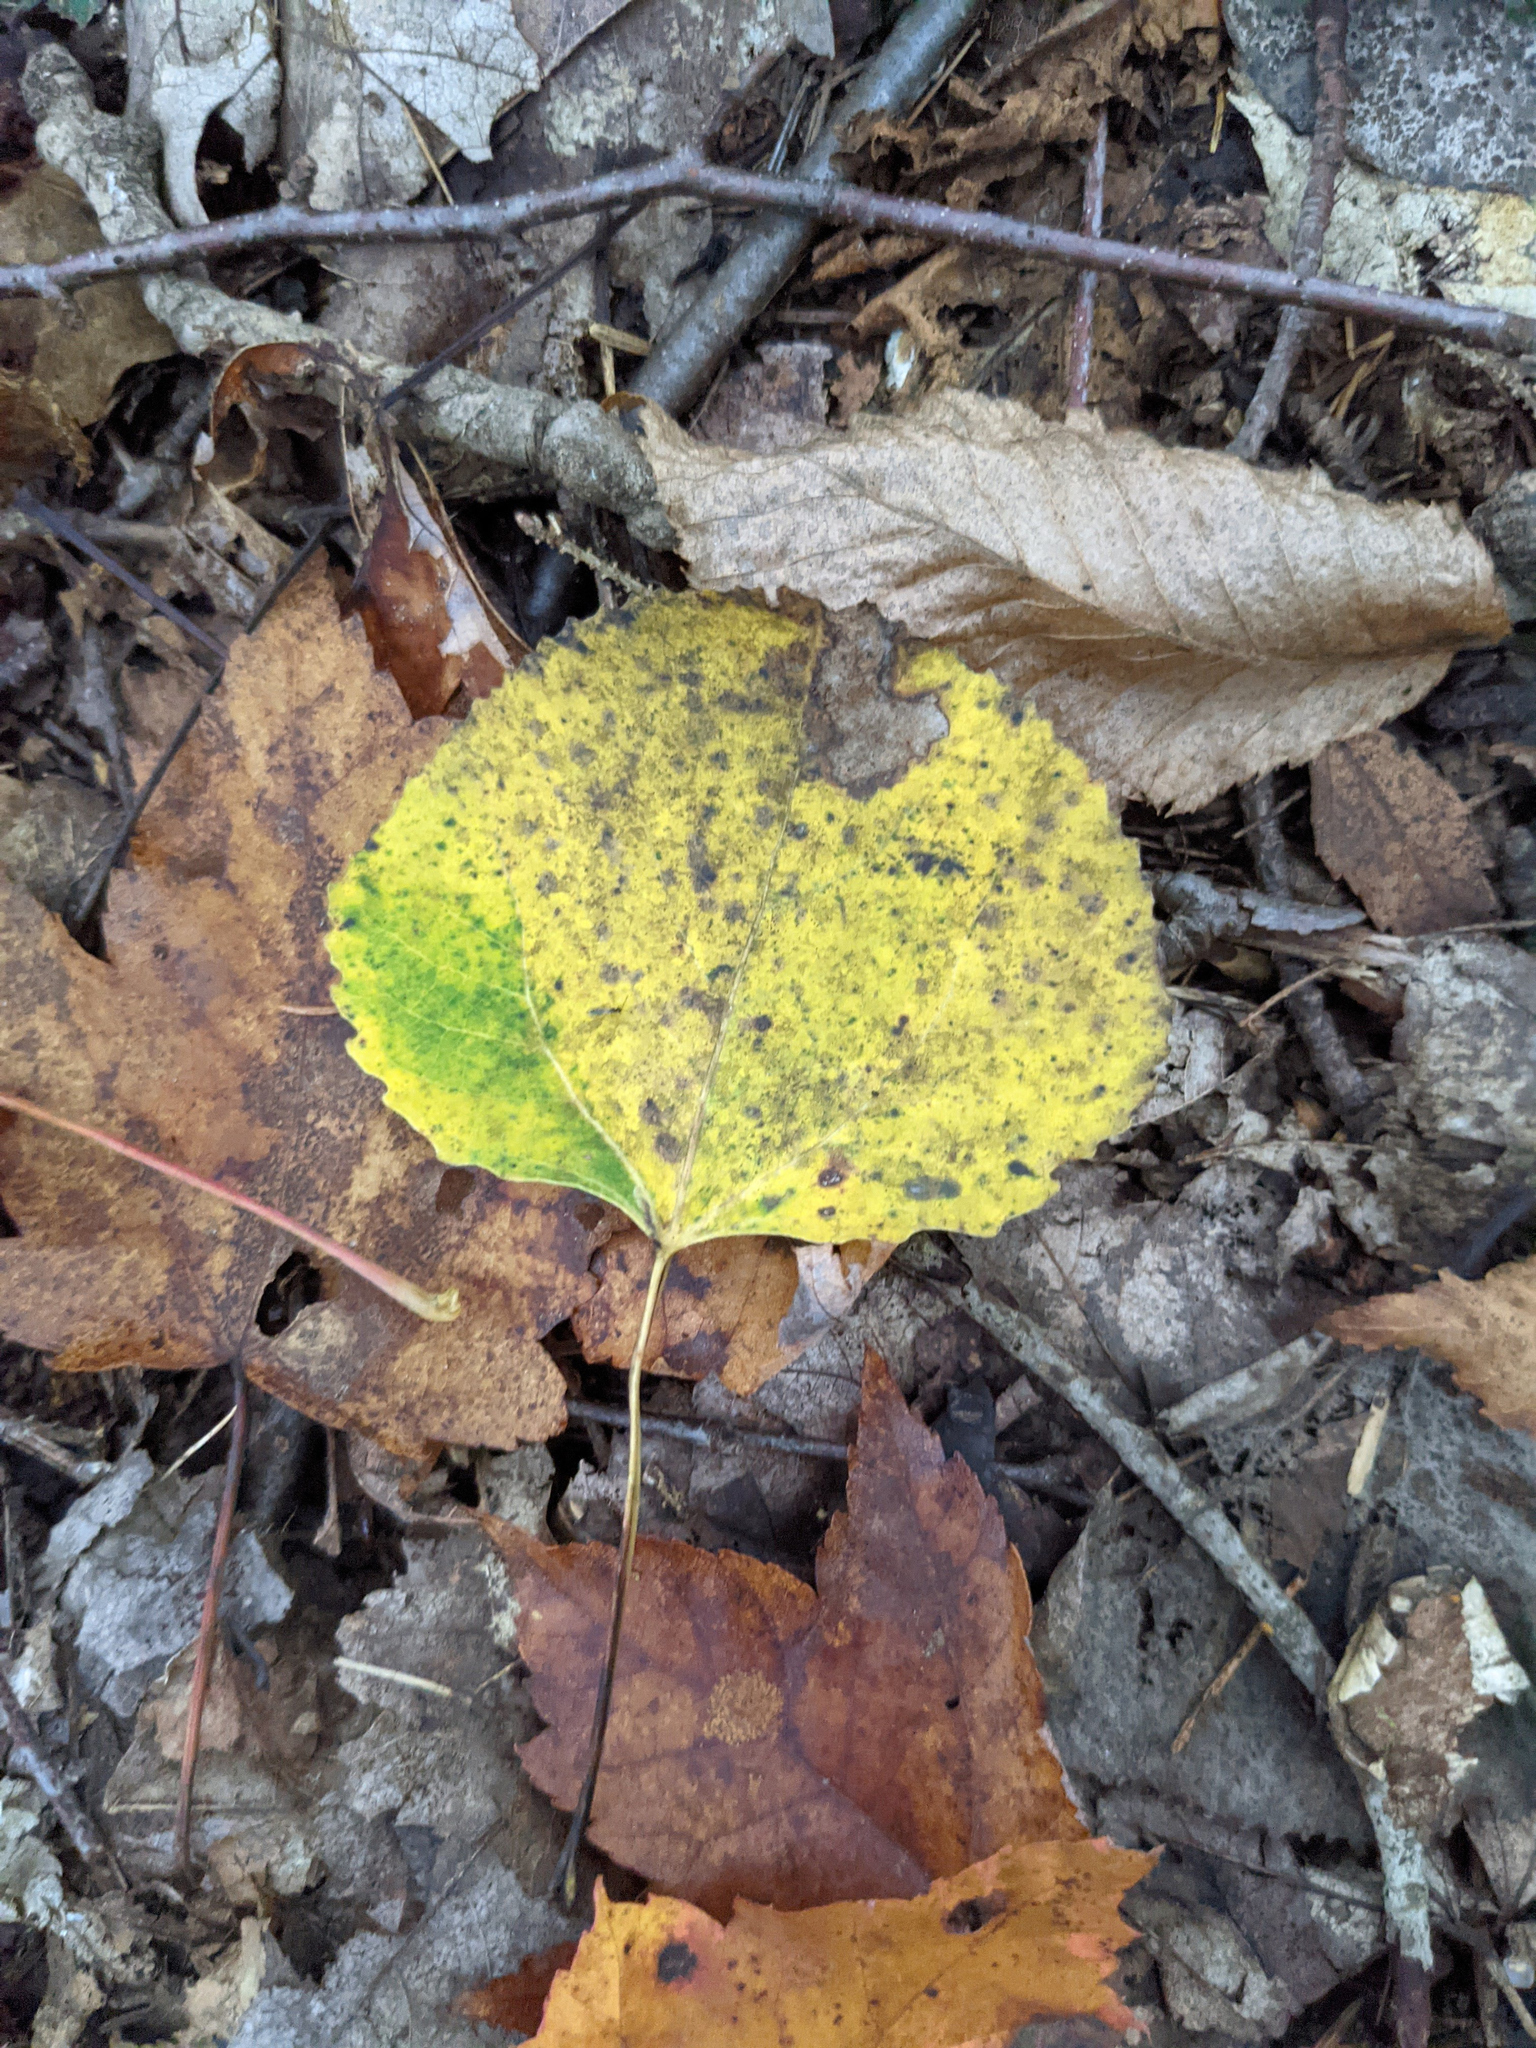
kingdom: Plantae
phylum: Tracheophyta
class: Magnoliopsida
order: Malpighiales
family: Salicaceae
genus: Populus
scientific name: Populus tremuloides
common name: Quaking aspen
